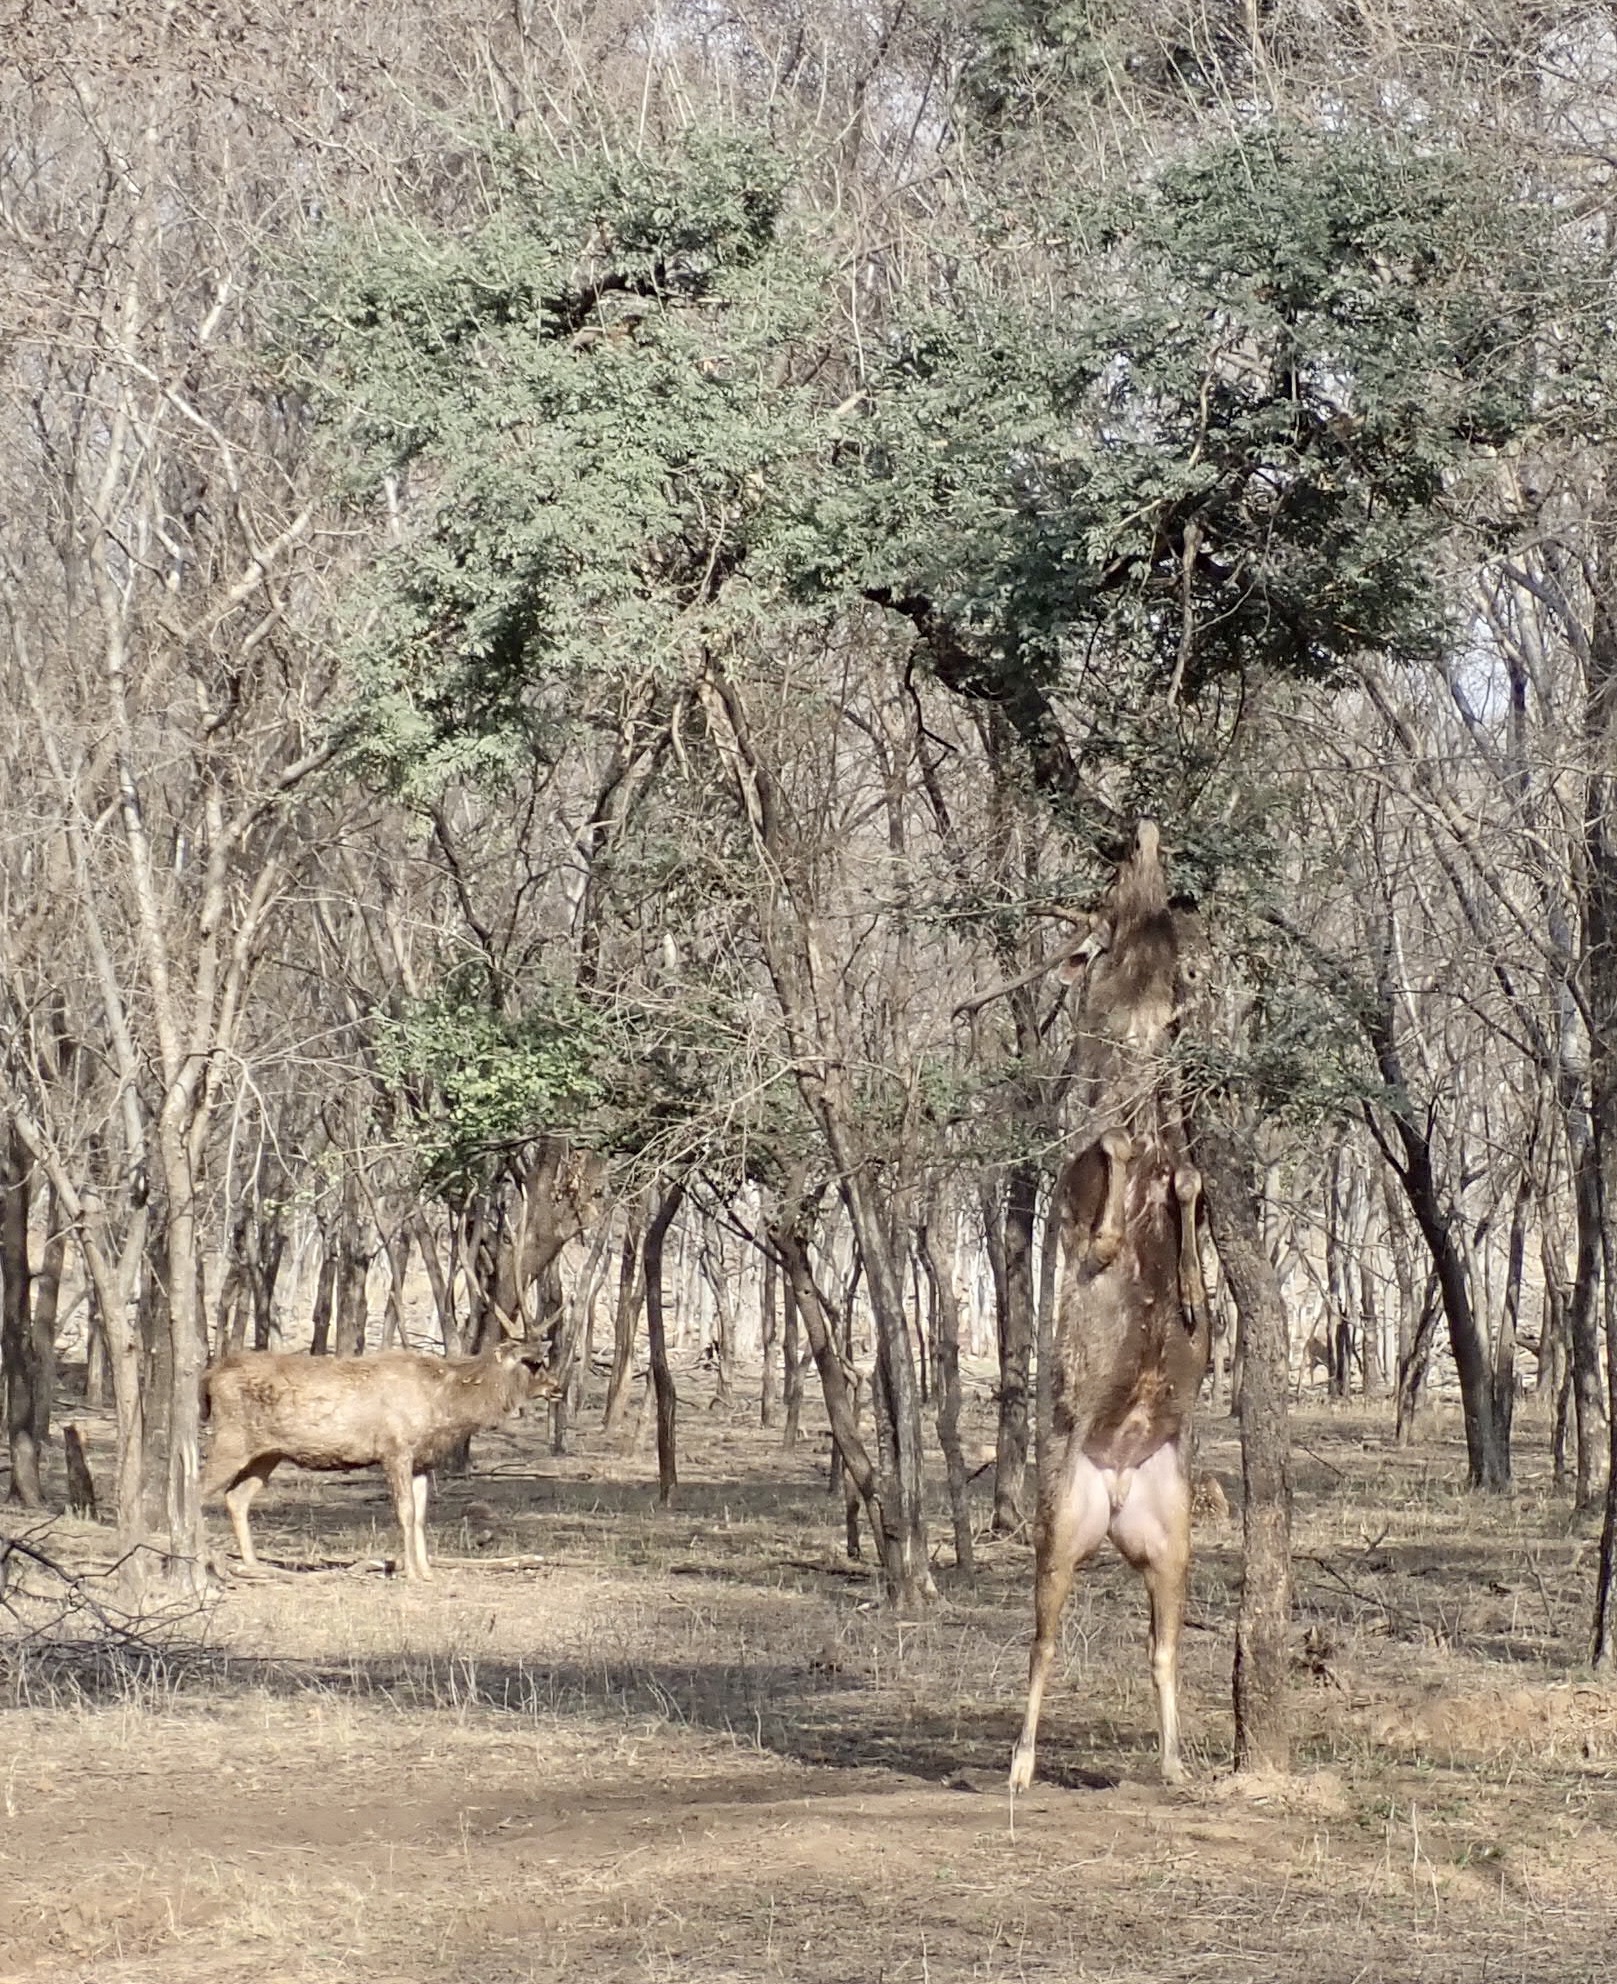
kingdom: Animalia
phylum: Chordata
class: Mammalia
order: Artiodactyla
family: Cervidae
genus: Rusa
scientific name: Rusa unicolor
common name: Sambar
